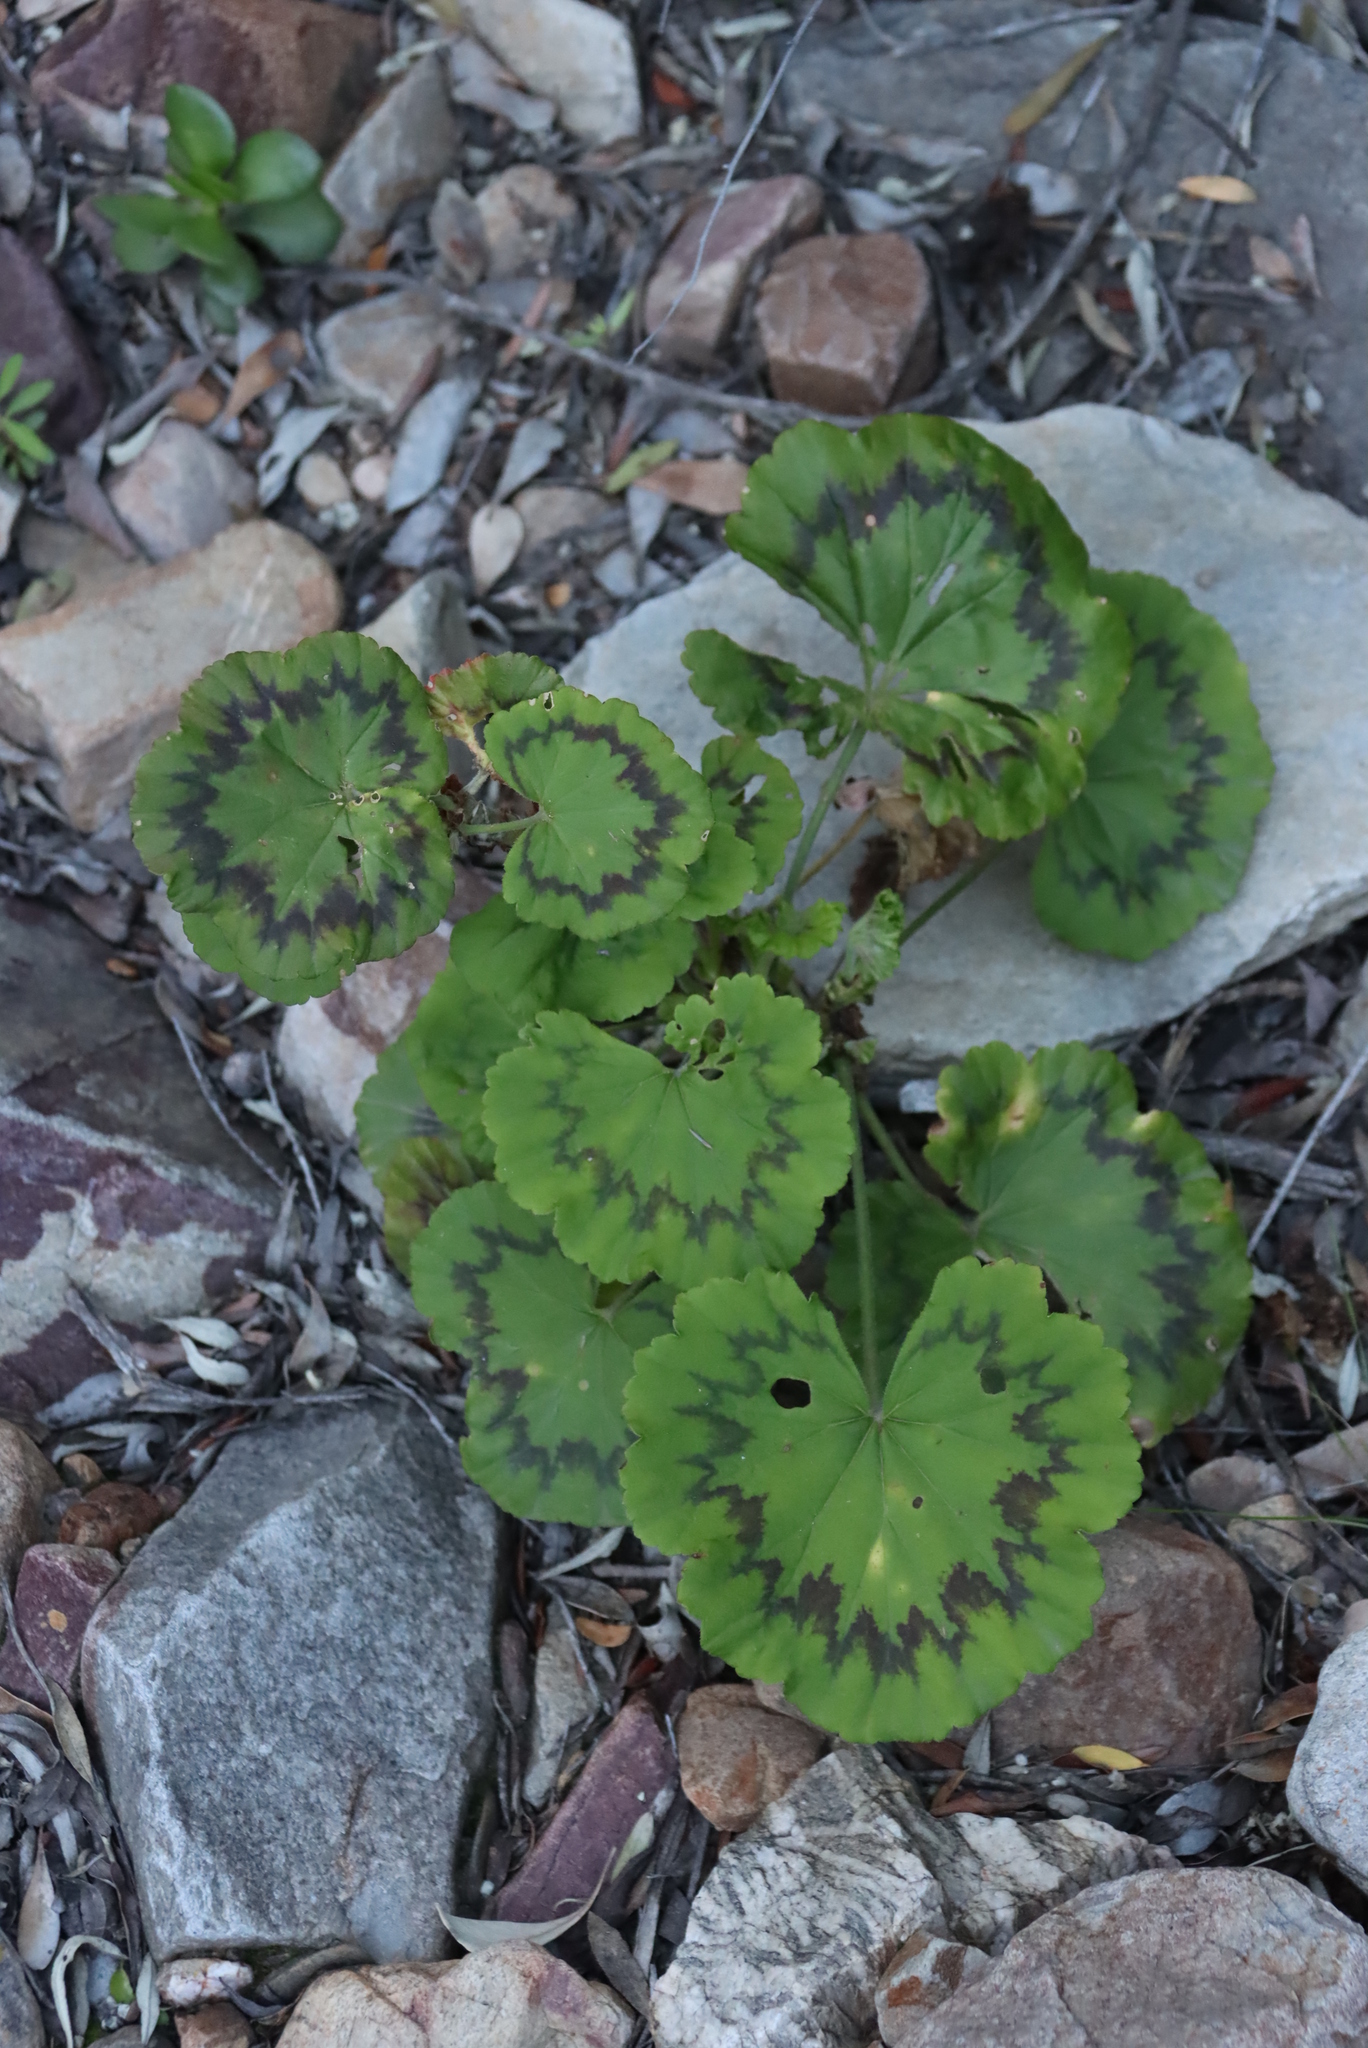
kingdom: Plantae
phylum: Tracheophyta
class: Magnoliopsida
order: Geraniales
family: Geraniaceae
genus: Pelargonium
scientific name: Pelargonium zonale
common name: Horseshoe geranium
